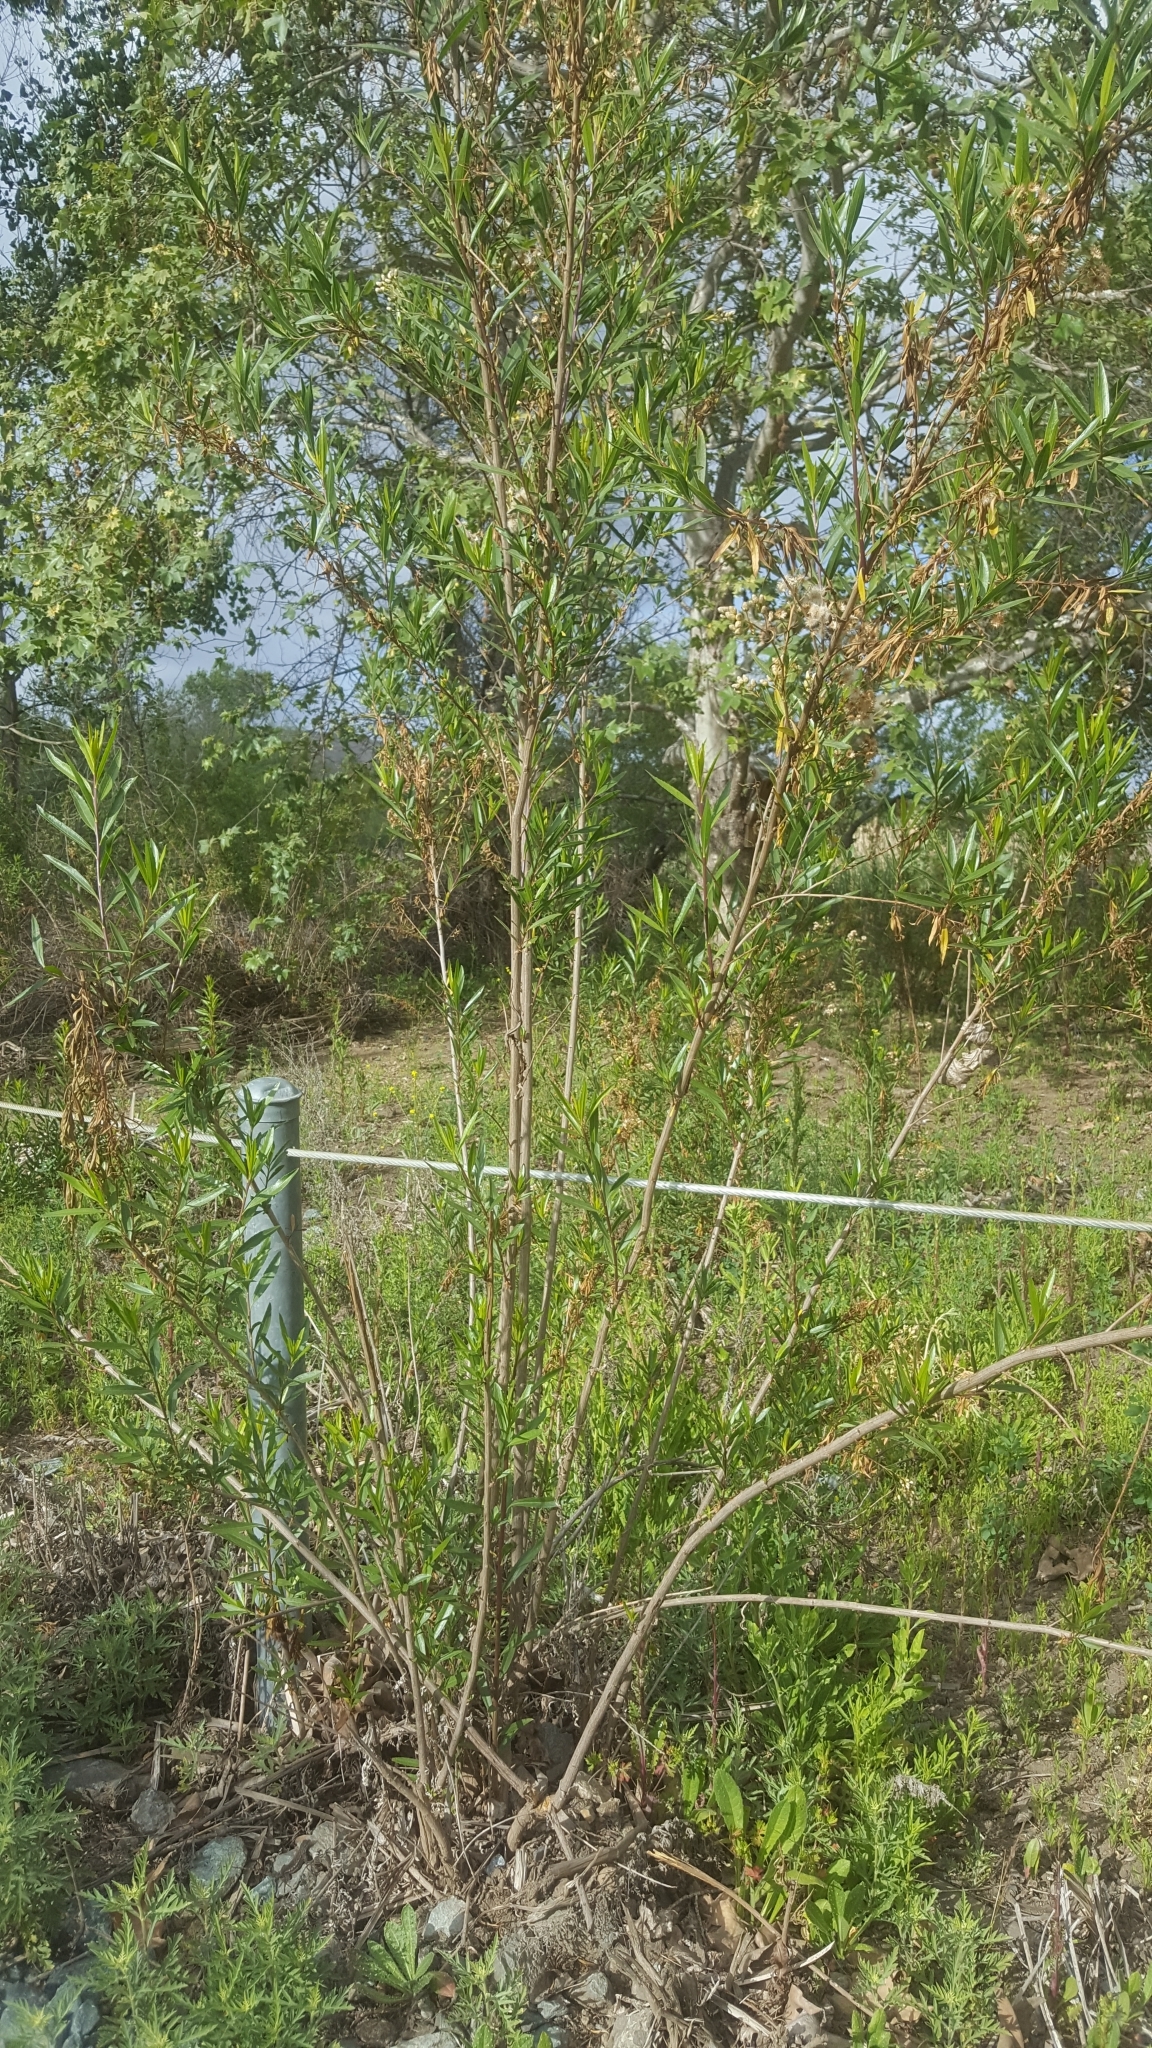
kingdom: Plantae
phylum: Tracheophyta
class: Magnoliopsida
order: Asterales
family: Asteraceae
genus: Baccharis
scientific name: Baccharis salicifolia
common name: Sticky baccharis
